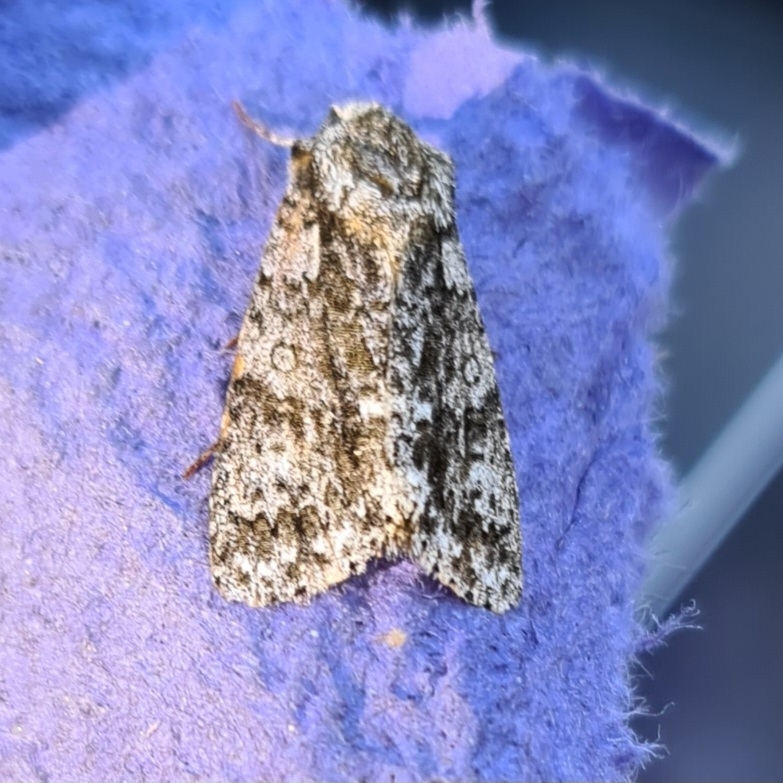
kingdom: Animalia
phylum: Arthropoda
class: Insecta
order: Lepidoptera
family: Noctuidae
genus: Acronicta
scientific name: Acronicta rumicis
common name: Knot grass
